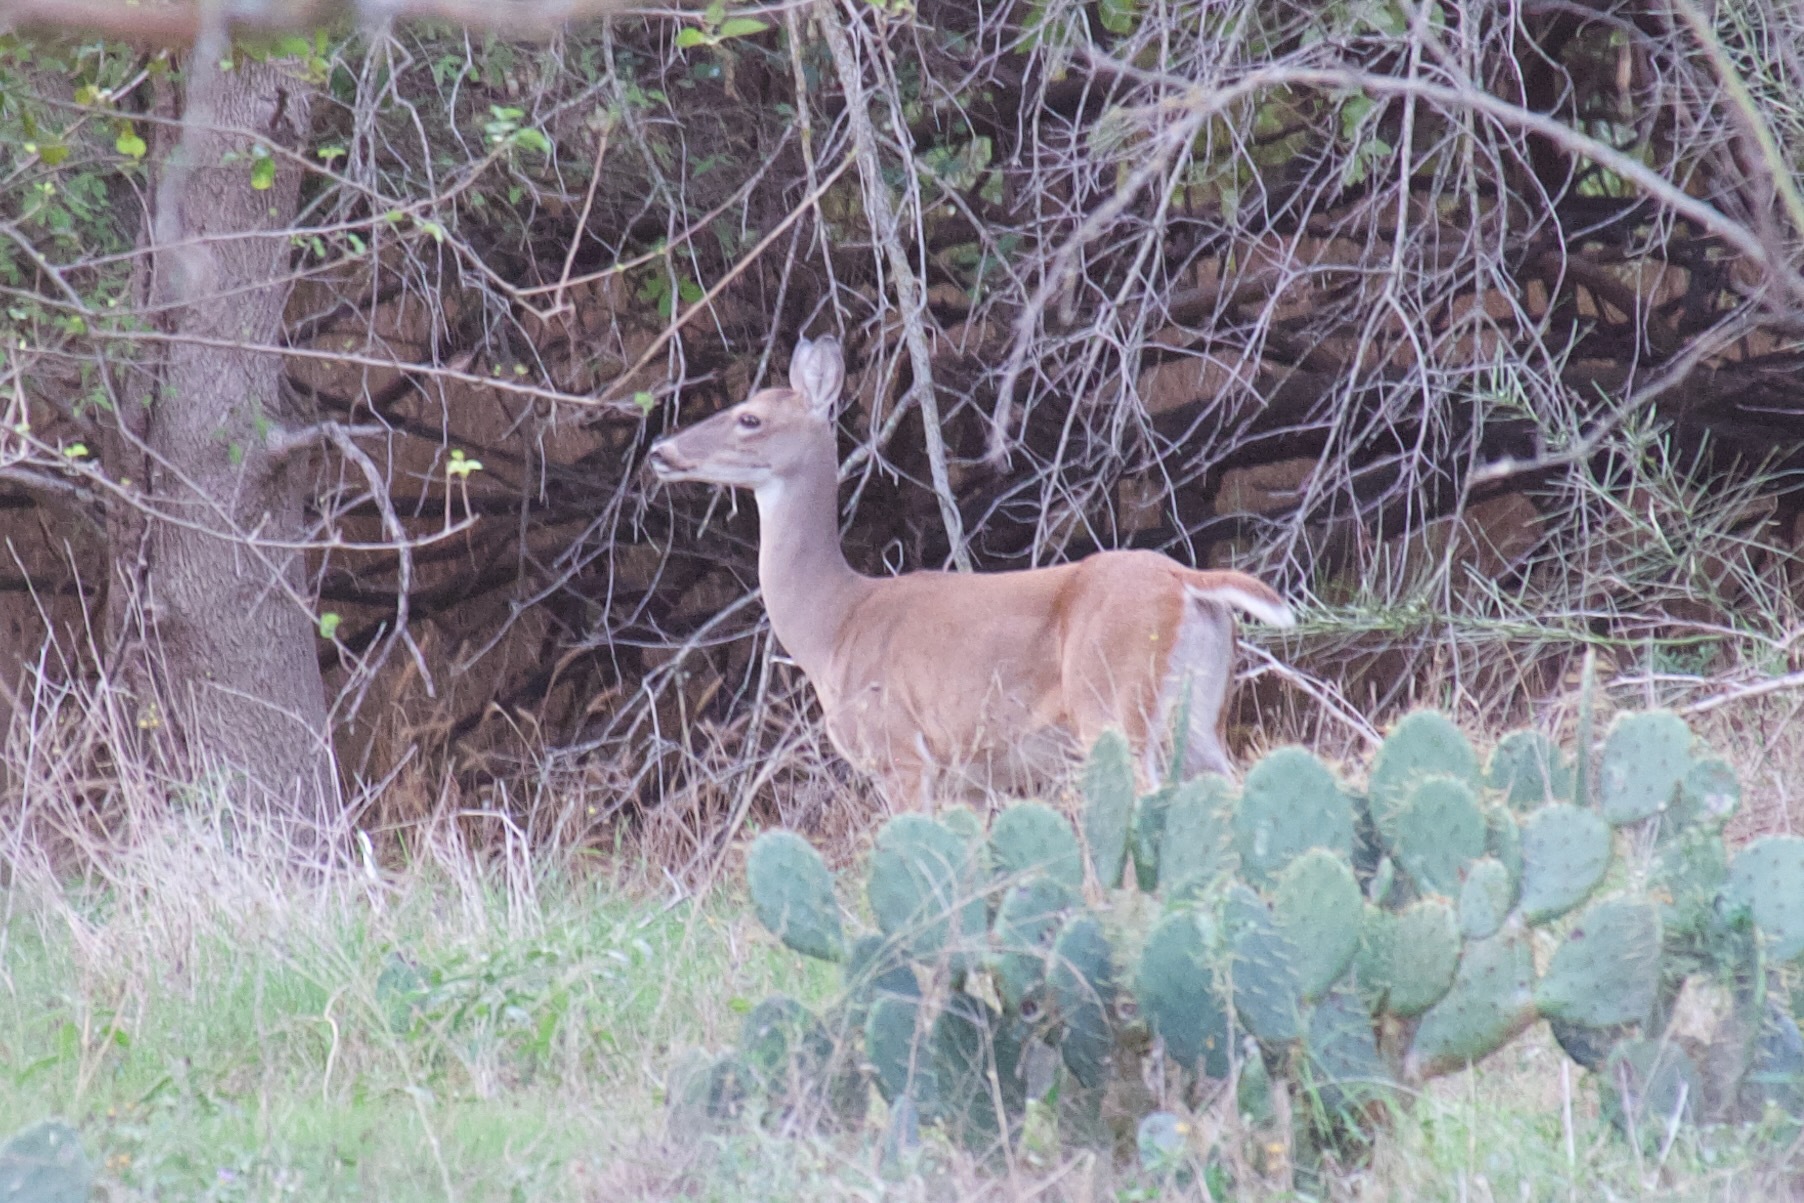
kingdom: Animalia
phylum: Chordata
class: Mammalia
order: Artiodactyla
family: Cervidae
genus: Odocoileus
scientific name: Odocoileus virginianus
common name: White-tailed deer
